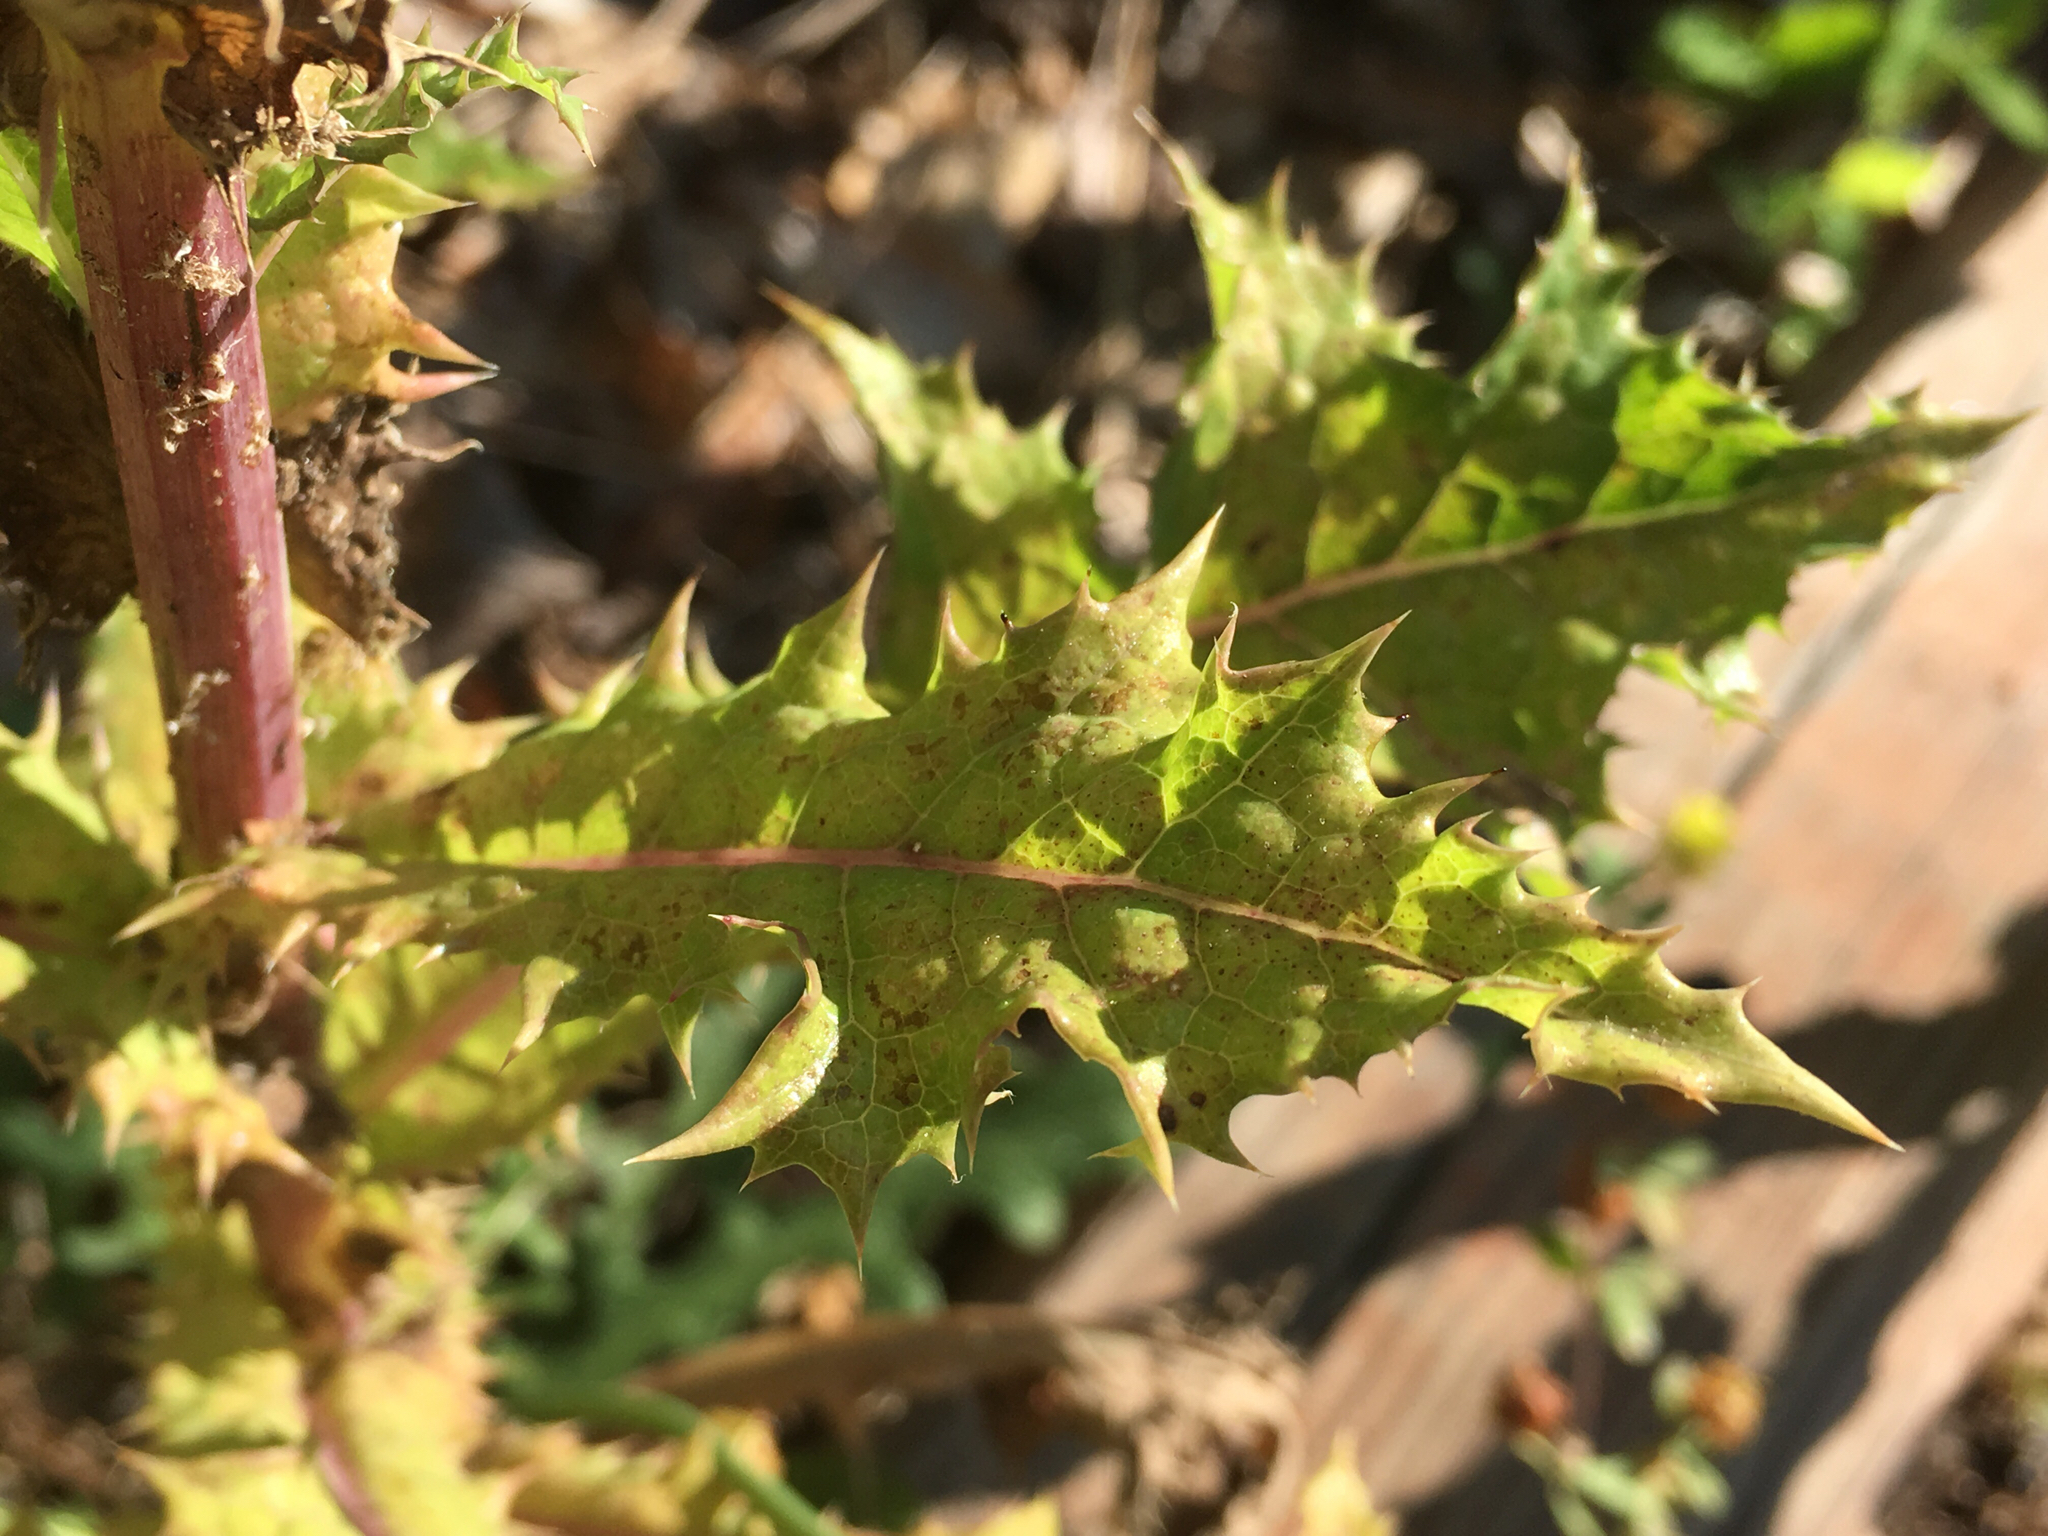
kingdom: Plantae
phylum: Tracheophyta
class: Magnoliopsida
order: Asterales
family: Asteraceae
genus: Sonchus
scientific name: Sonchus asper
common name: Prickly sow-thistle
